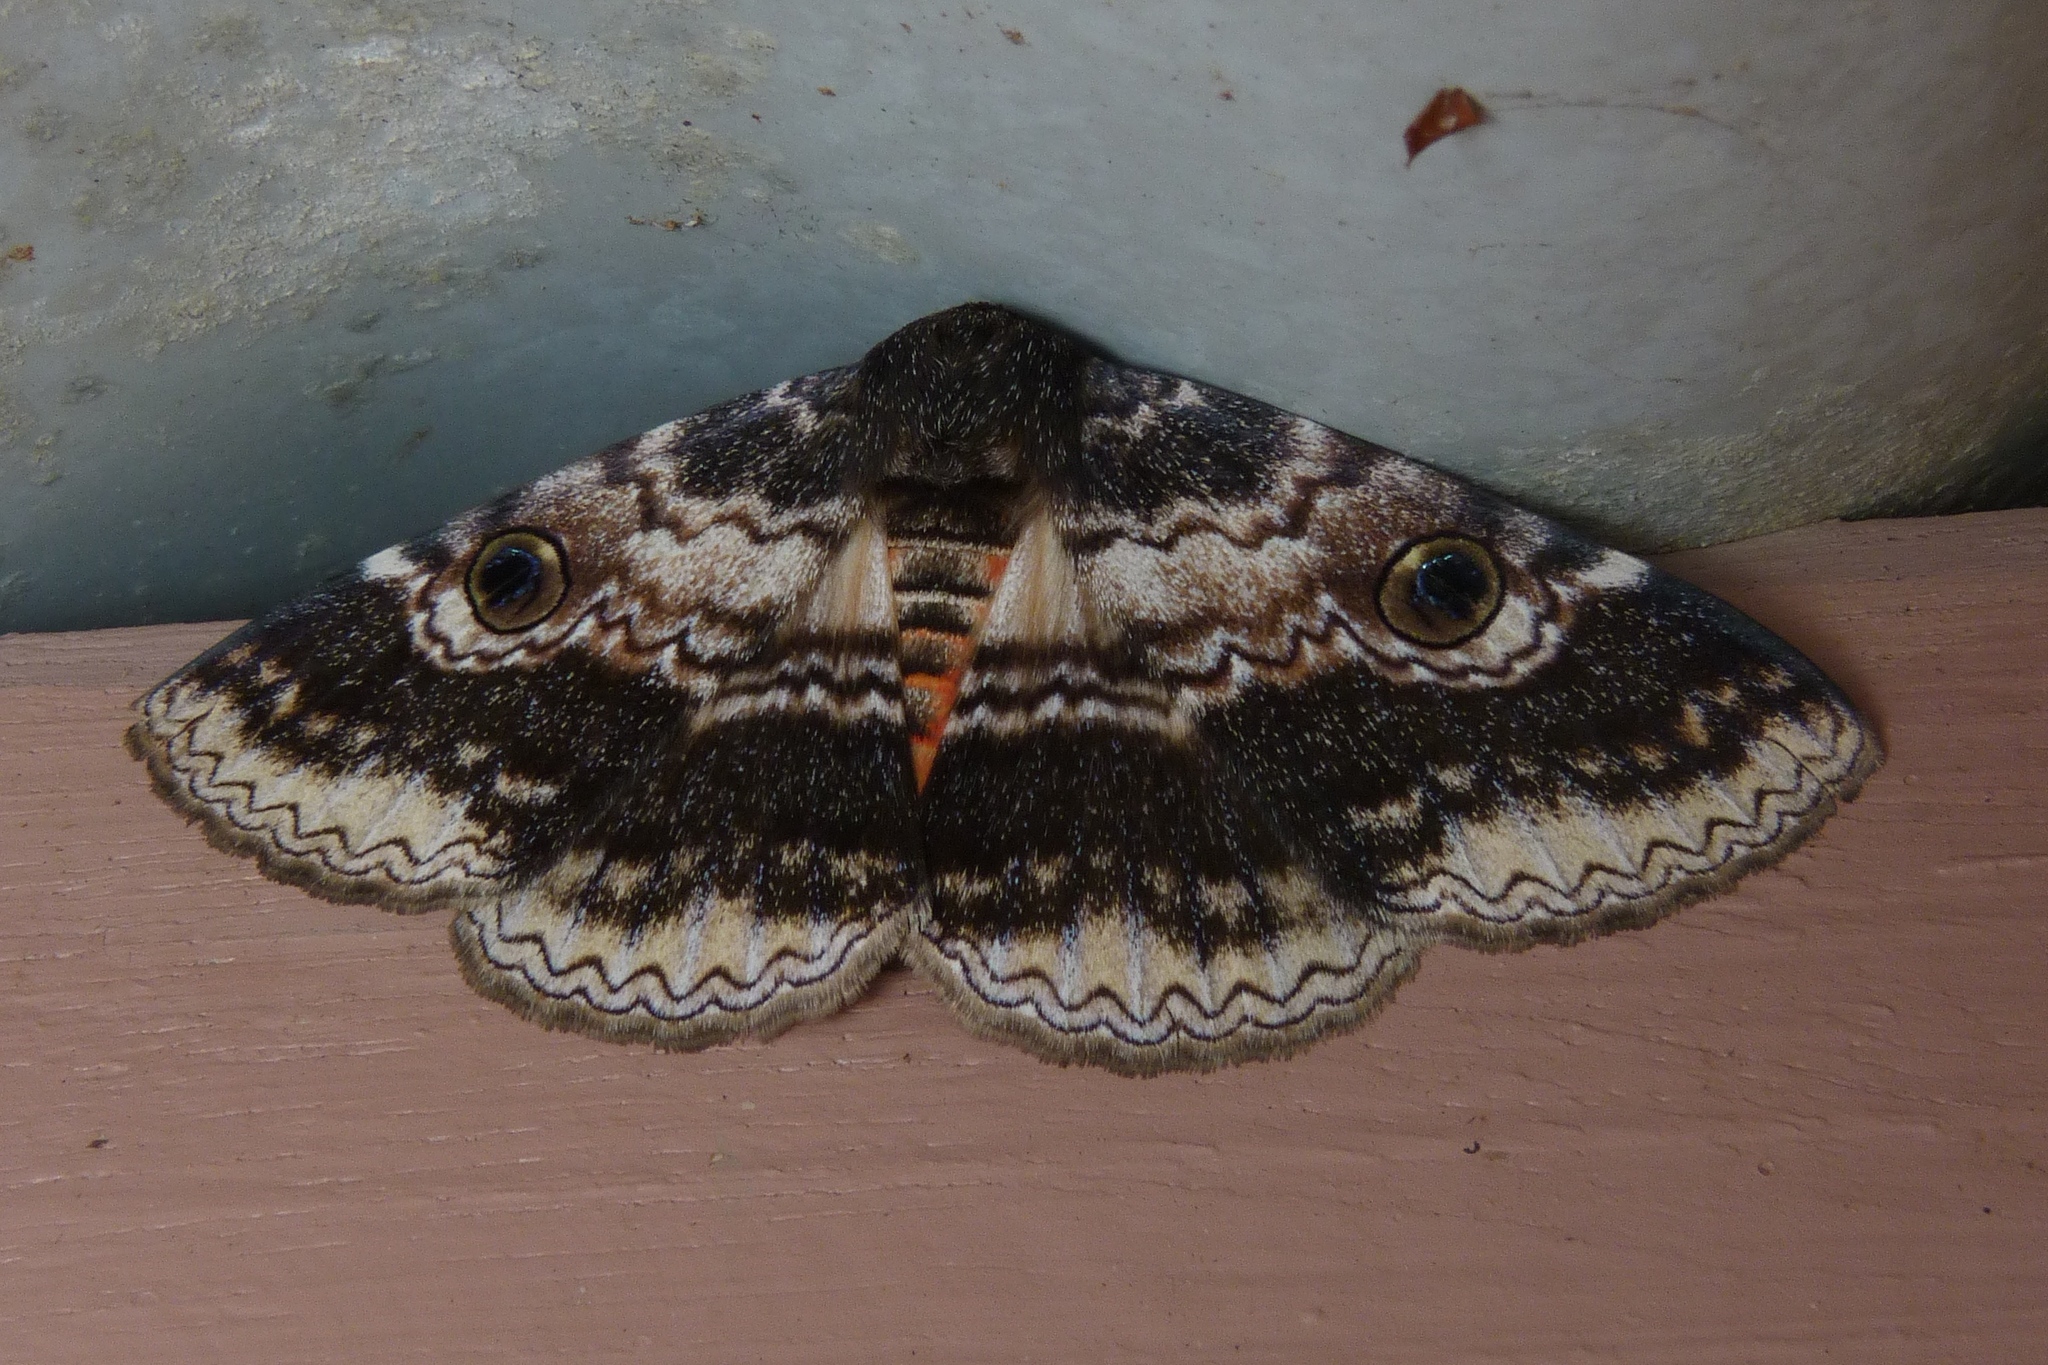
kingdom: Animalia
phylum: Arthropoda
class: Insecta
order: Lepidoptera
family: Erebidae
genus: Donuca
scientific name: Donuca castalia
